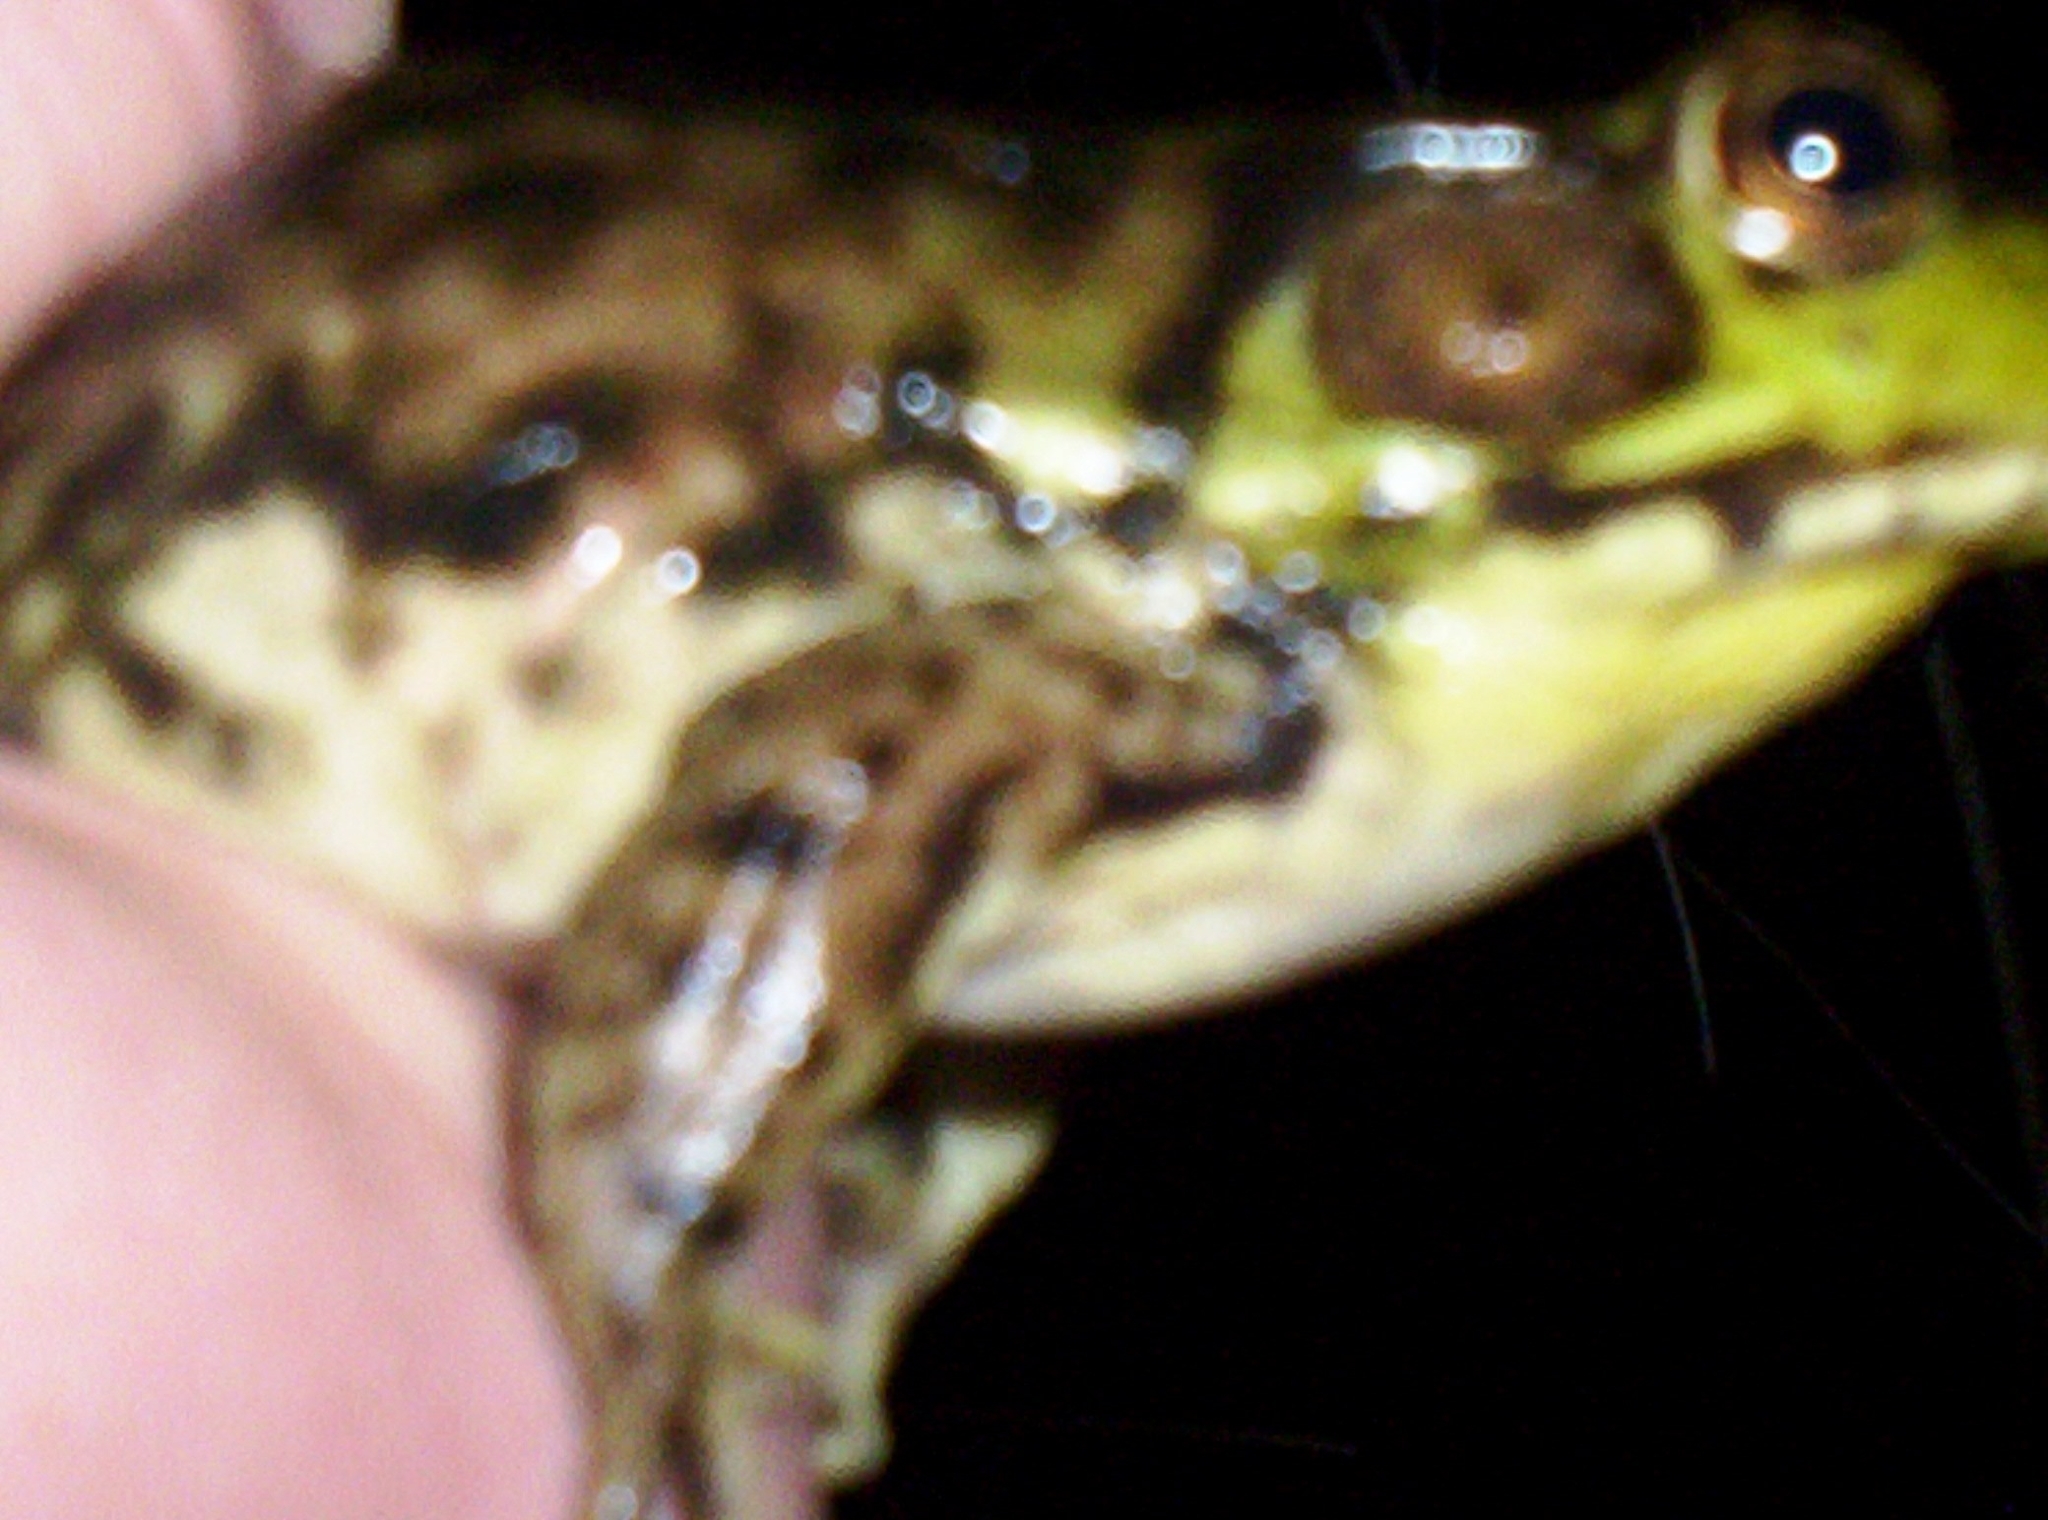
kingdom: Animalia
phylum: Chordata
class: Amphibia
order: Anura
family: Ranidae
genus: Lithobates
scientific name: Lithobates clamitans
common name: Green frog
